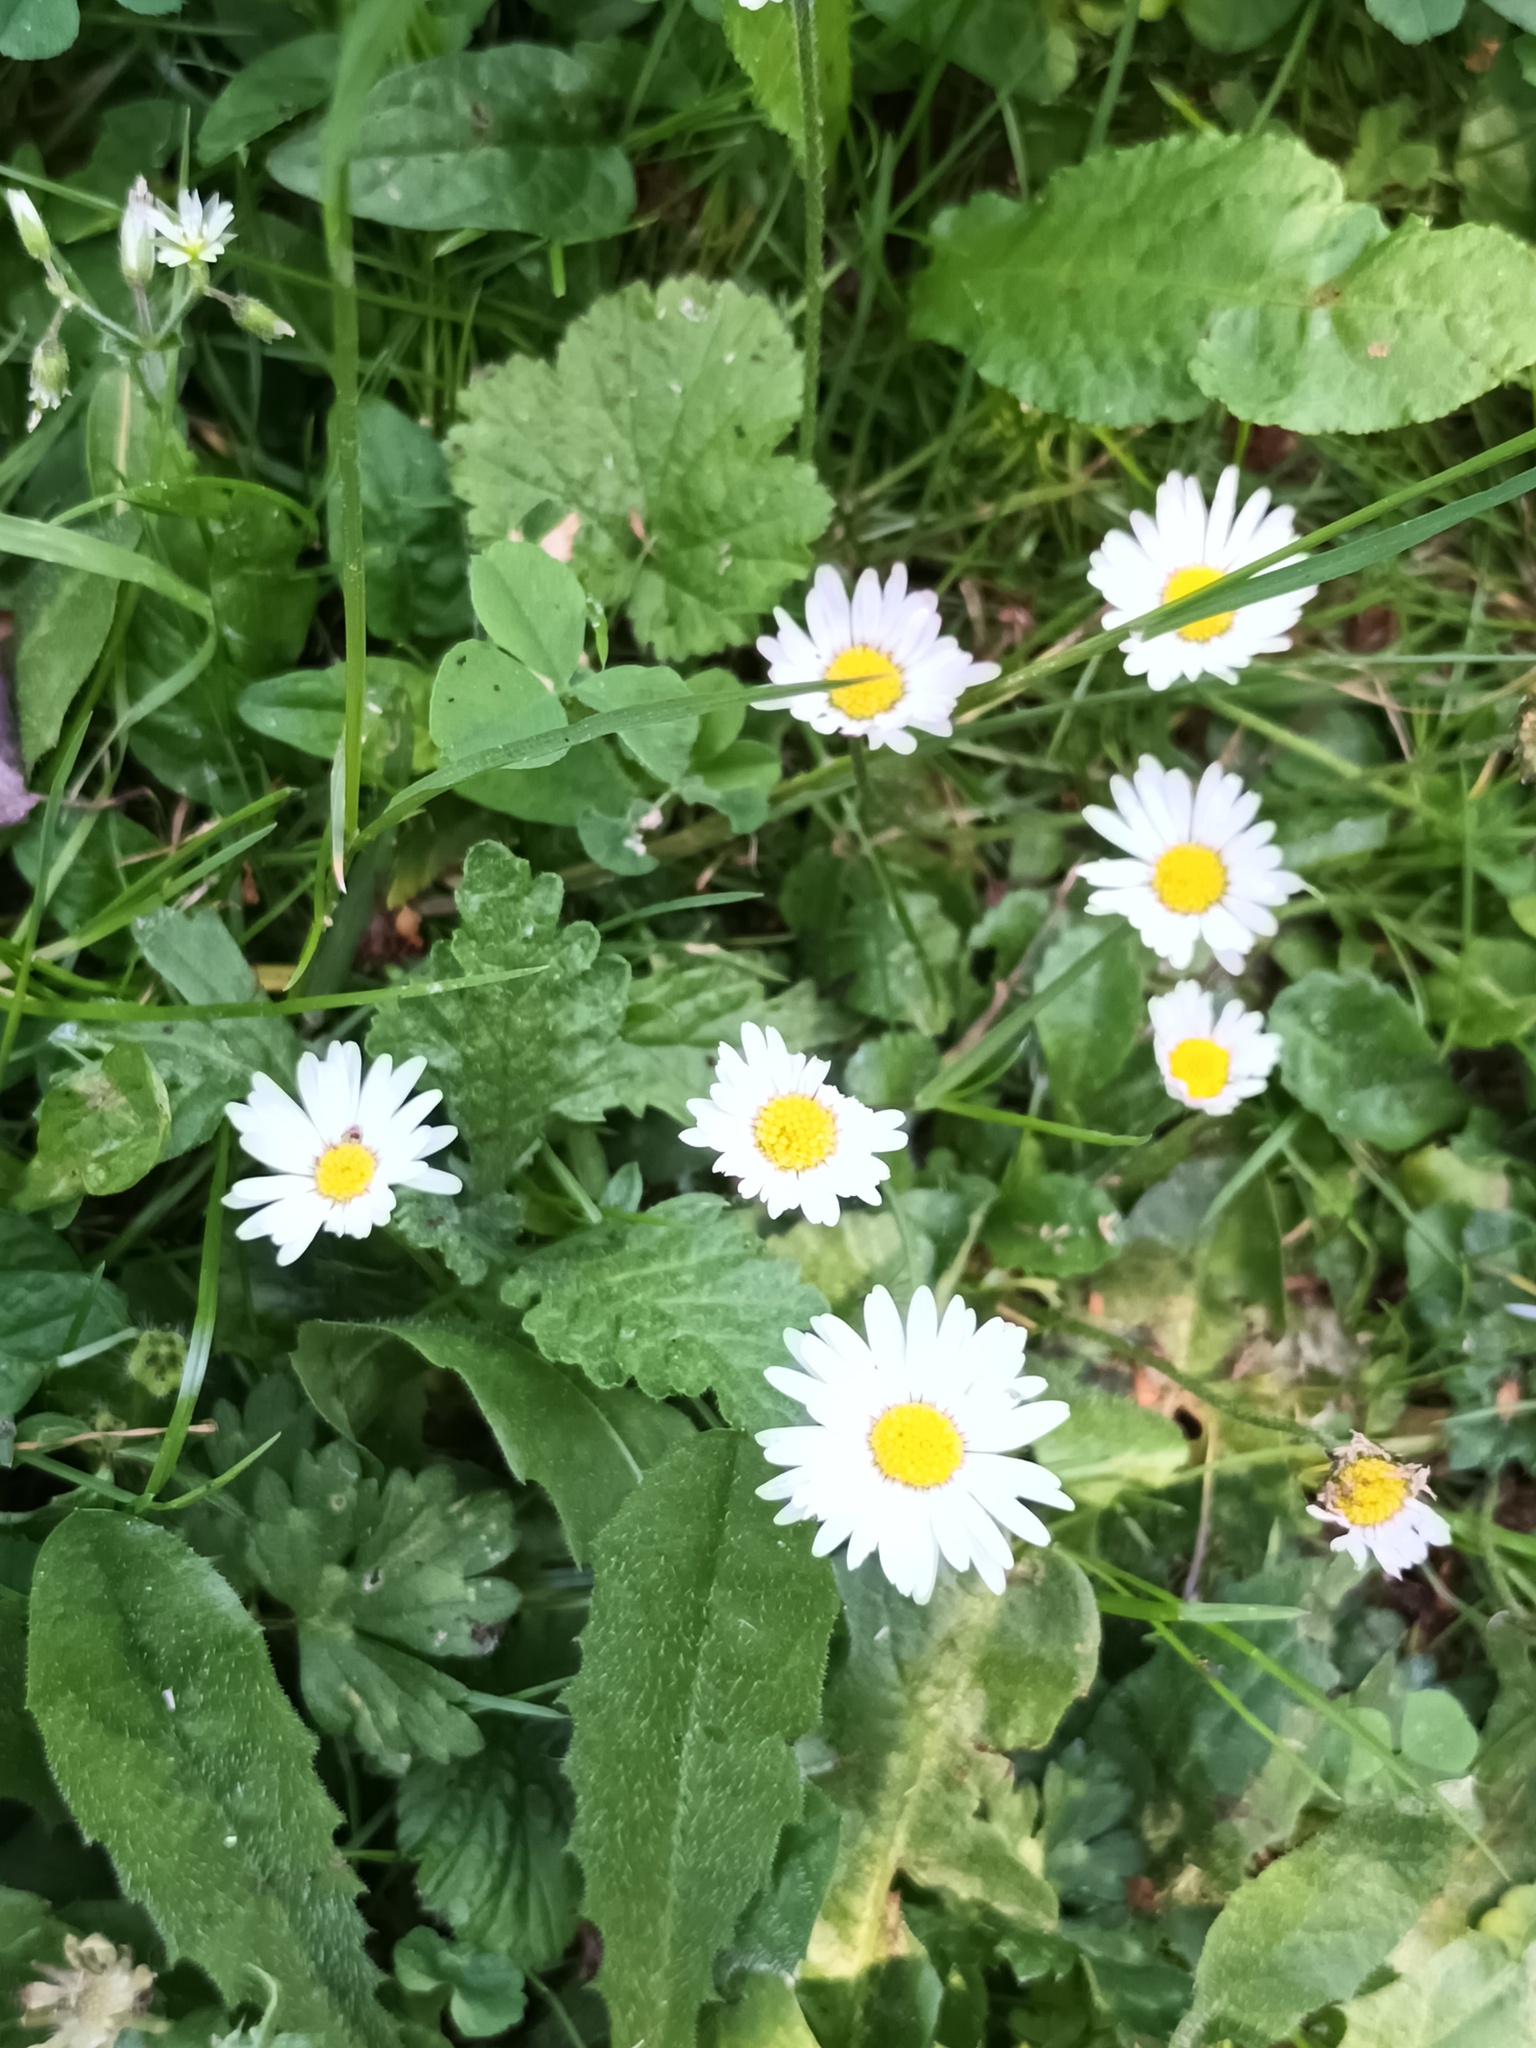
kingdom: Plantae
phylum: Tracheophyta
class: Magnoliopsida
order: Asterales
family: Asteraceae
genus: Bellis
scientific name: Bellis perennis
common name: Lawndaisy
